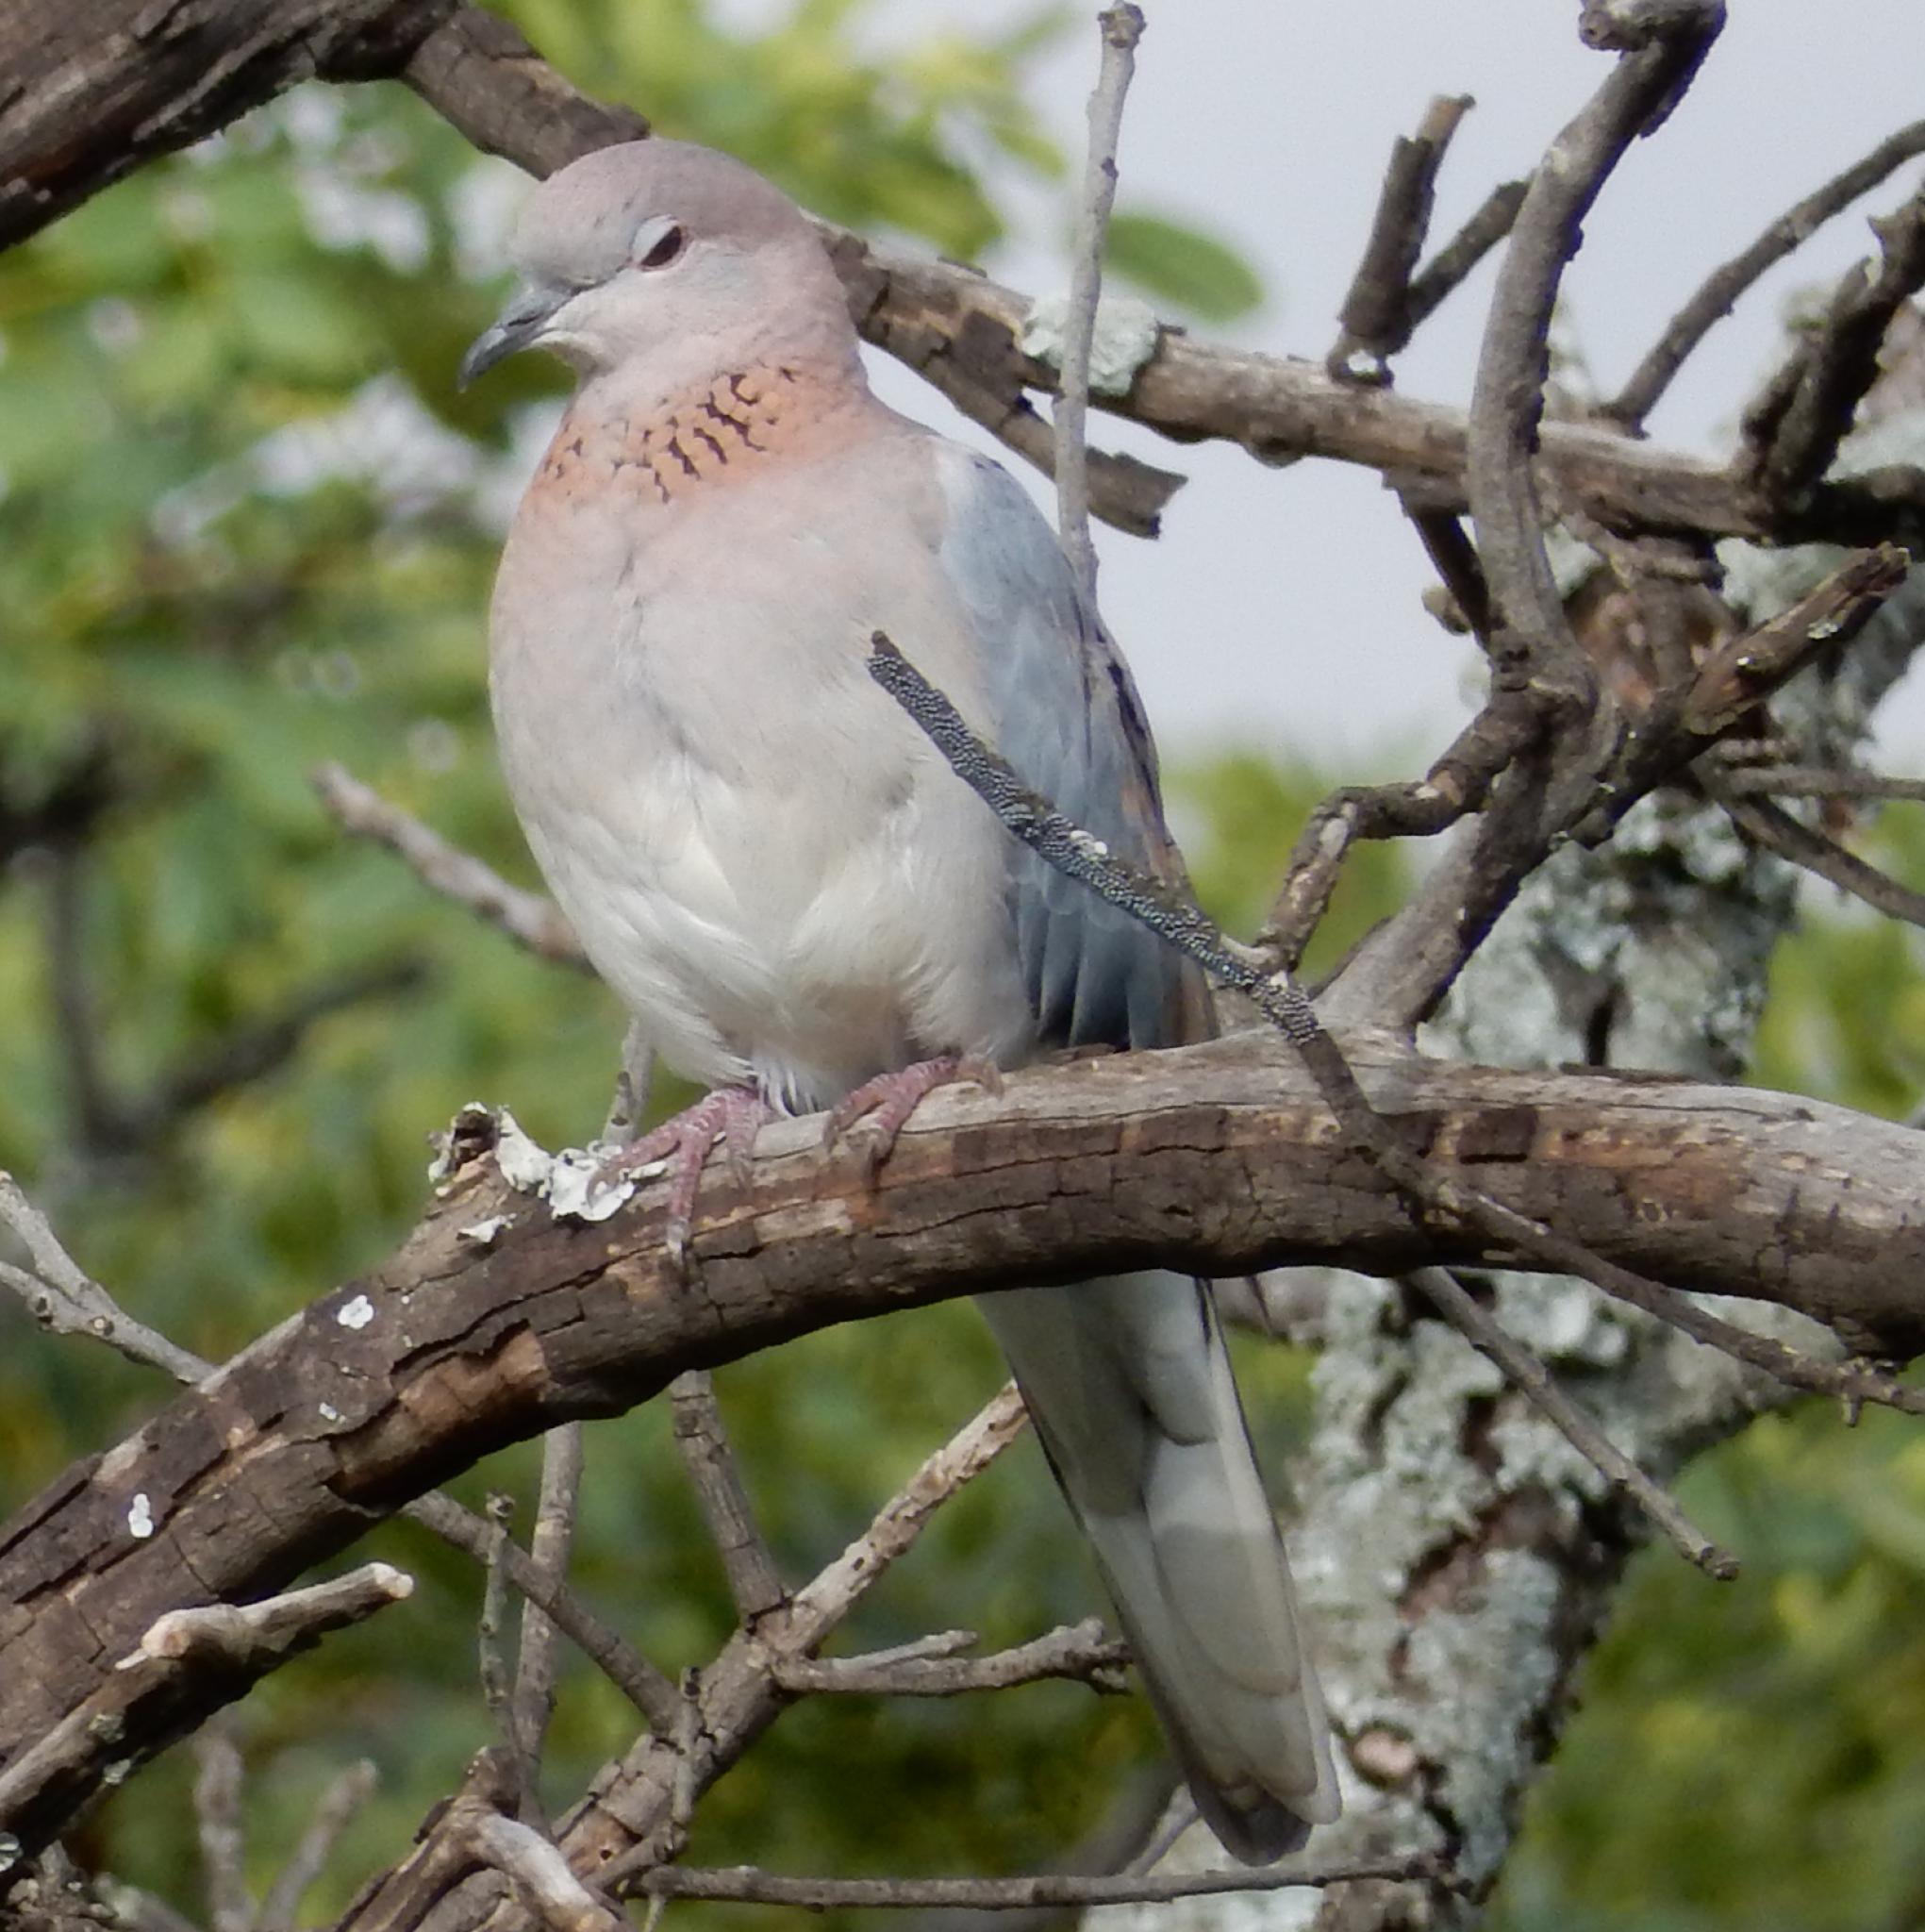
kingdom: Animalia
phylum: Chordata
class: Aves
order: Columbiformes
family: Columbidae
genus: Spilopelia
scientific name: Spilopelia senegalensis
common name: Laughing dove
